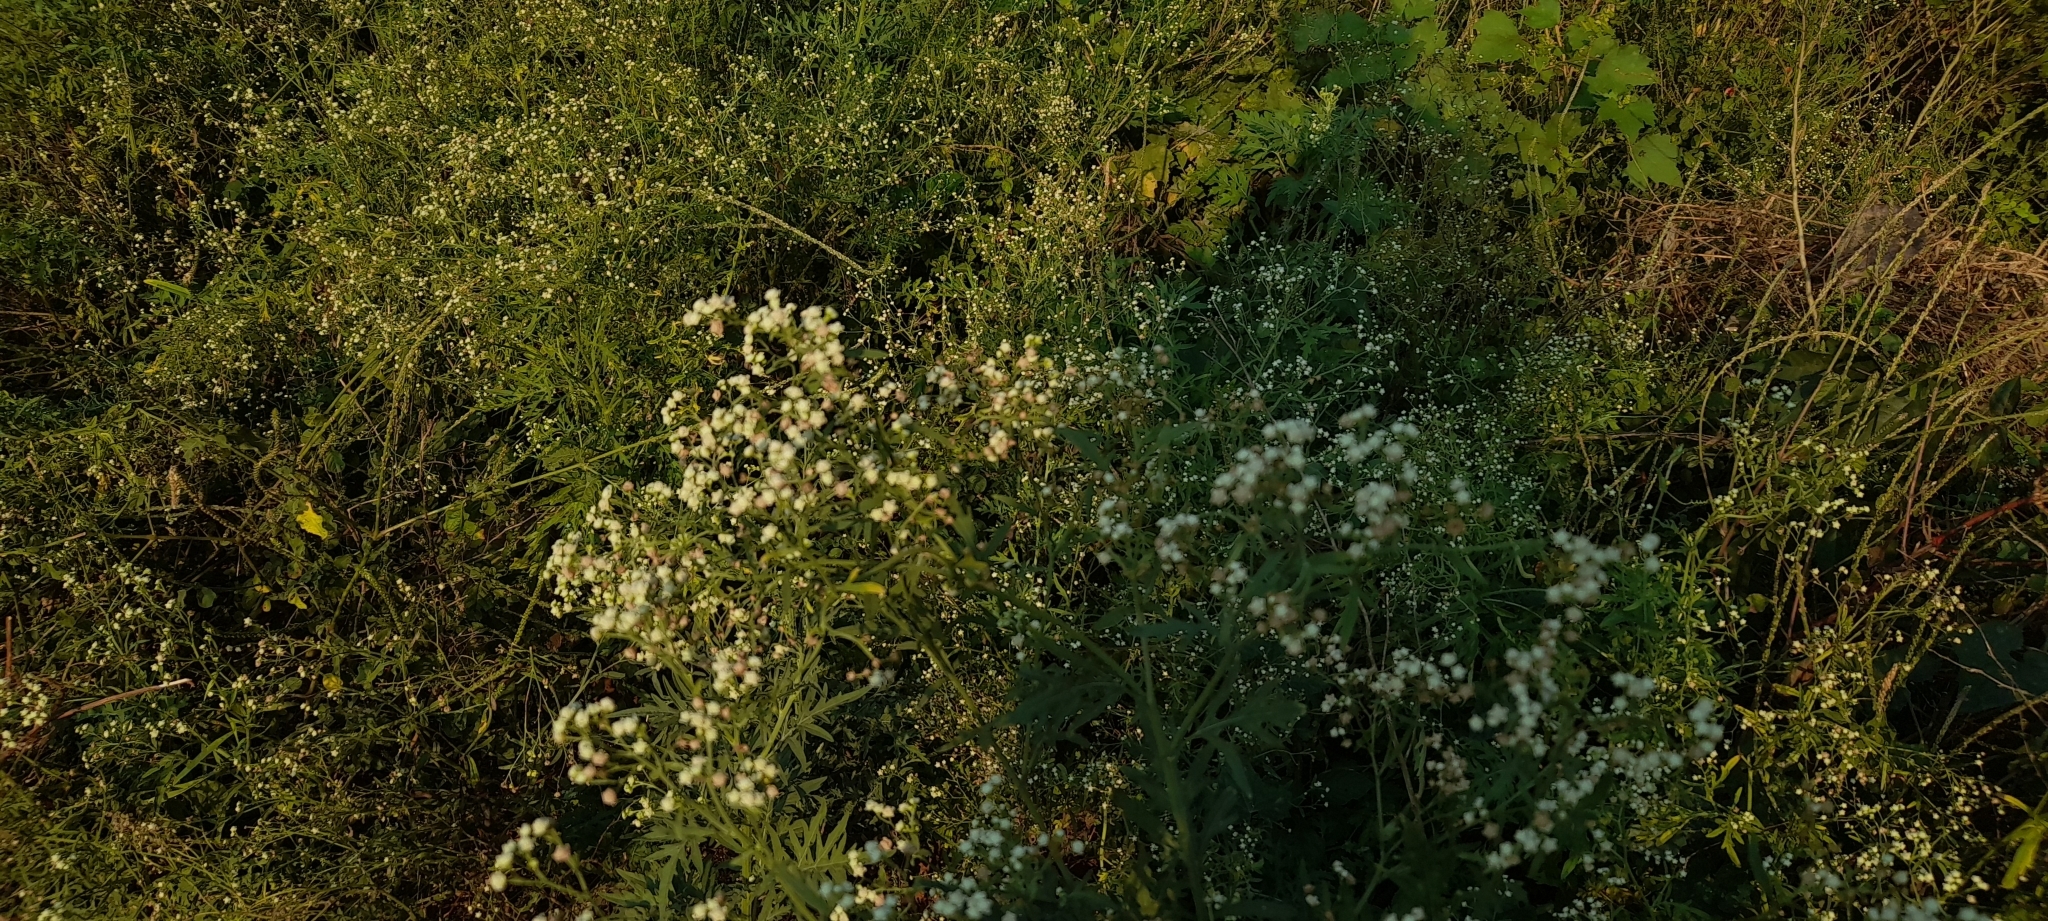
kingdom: Plantae
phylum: Tracheophyta
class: Magnoliopsida
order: Asterales
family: Asteraceae
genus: Parthenium
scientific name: Parthenium hysterophorus
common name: Santa maria feverfew
